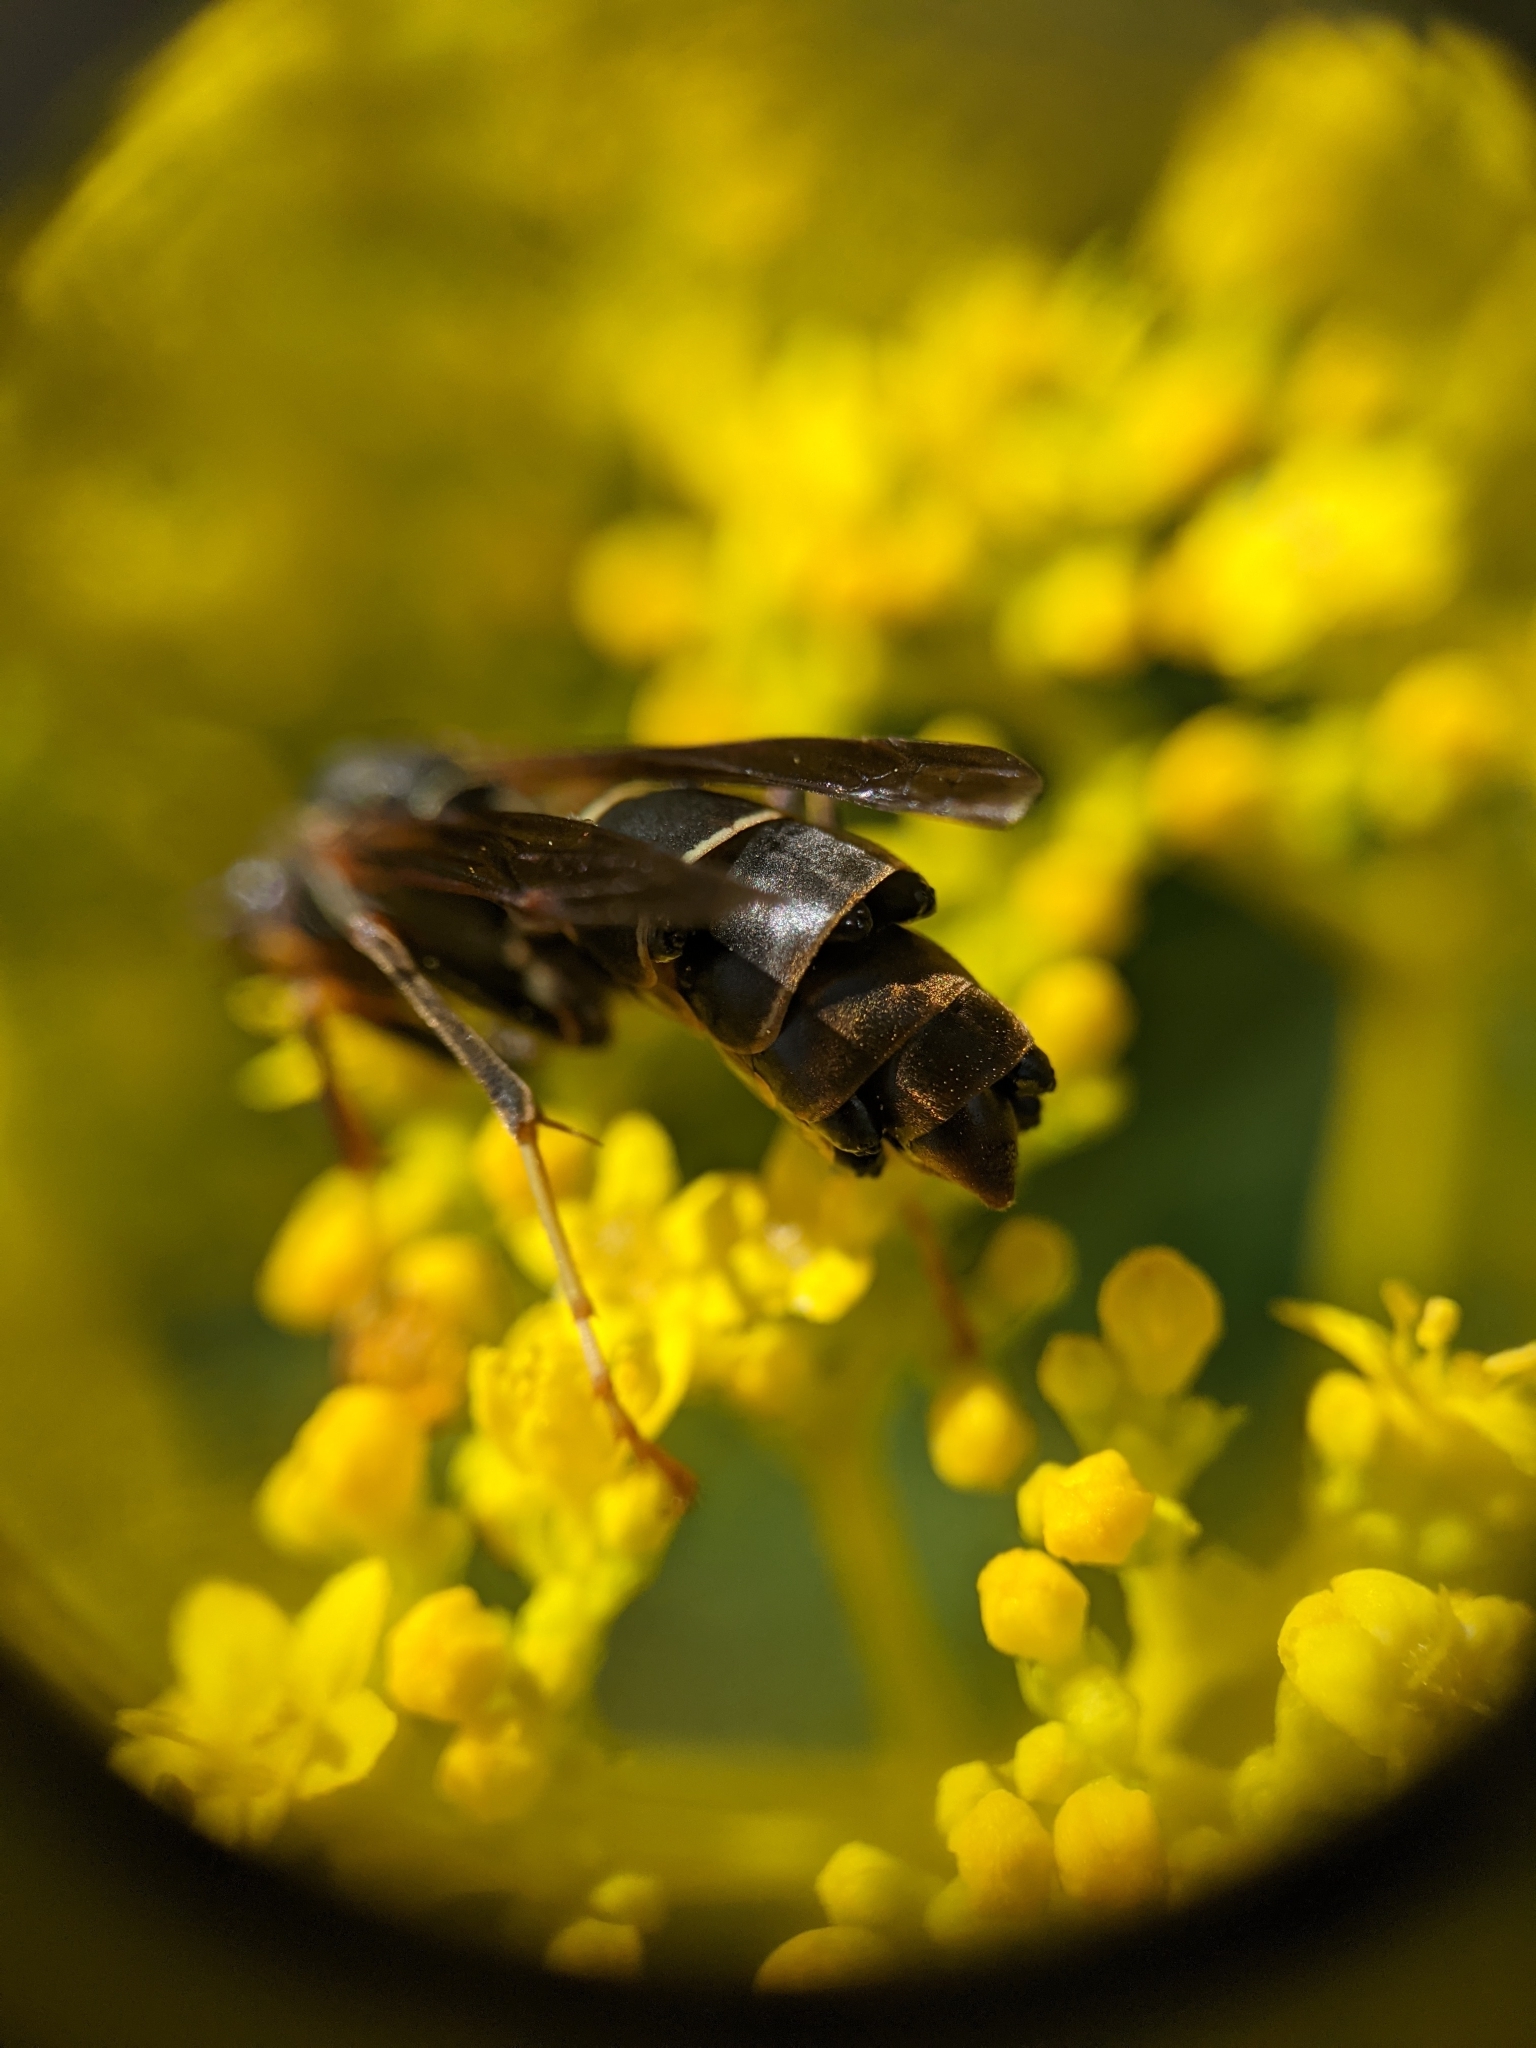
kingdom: Animalia
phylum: Arthropoda
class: Insecta
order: Strepsiptera
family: Xenidae
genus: Xenos
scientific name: Xenos pecki
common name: Twisted wing parasite
